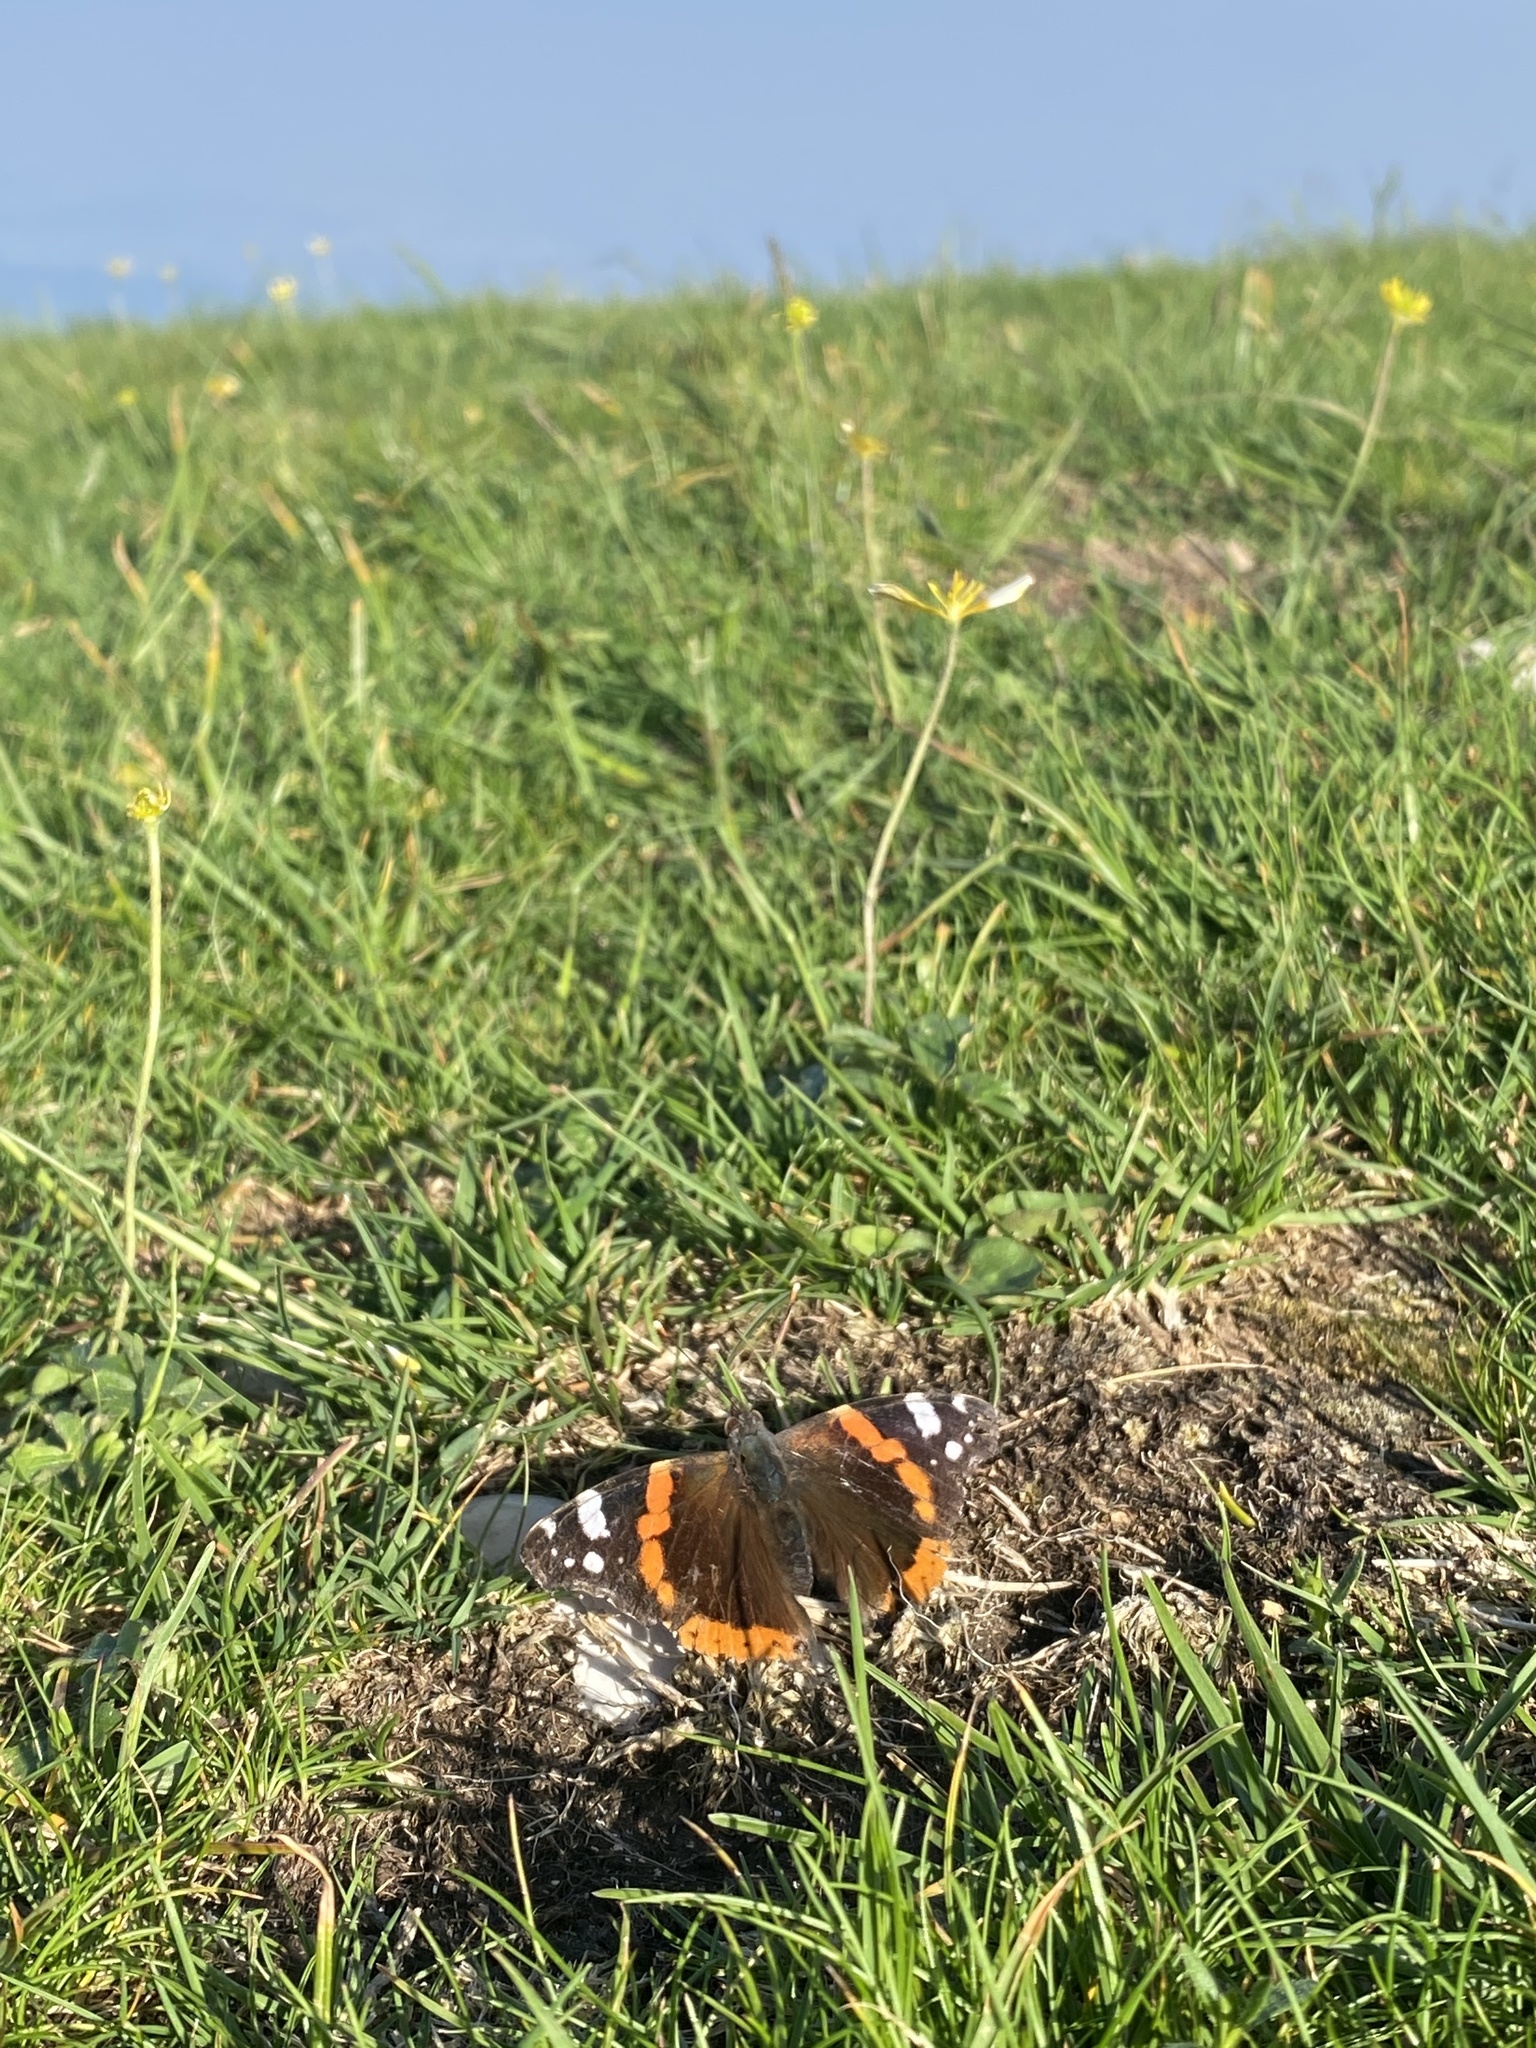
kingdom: Animalia
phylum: Arthropoda
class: Insecta
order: Lepidoptera
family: Nymphalidae
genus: Vanessa
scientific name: Vanessa atalanta
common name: Red admiral
